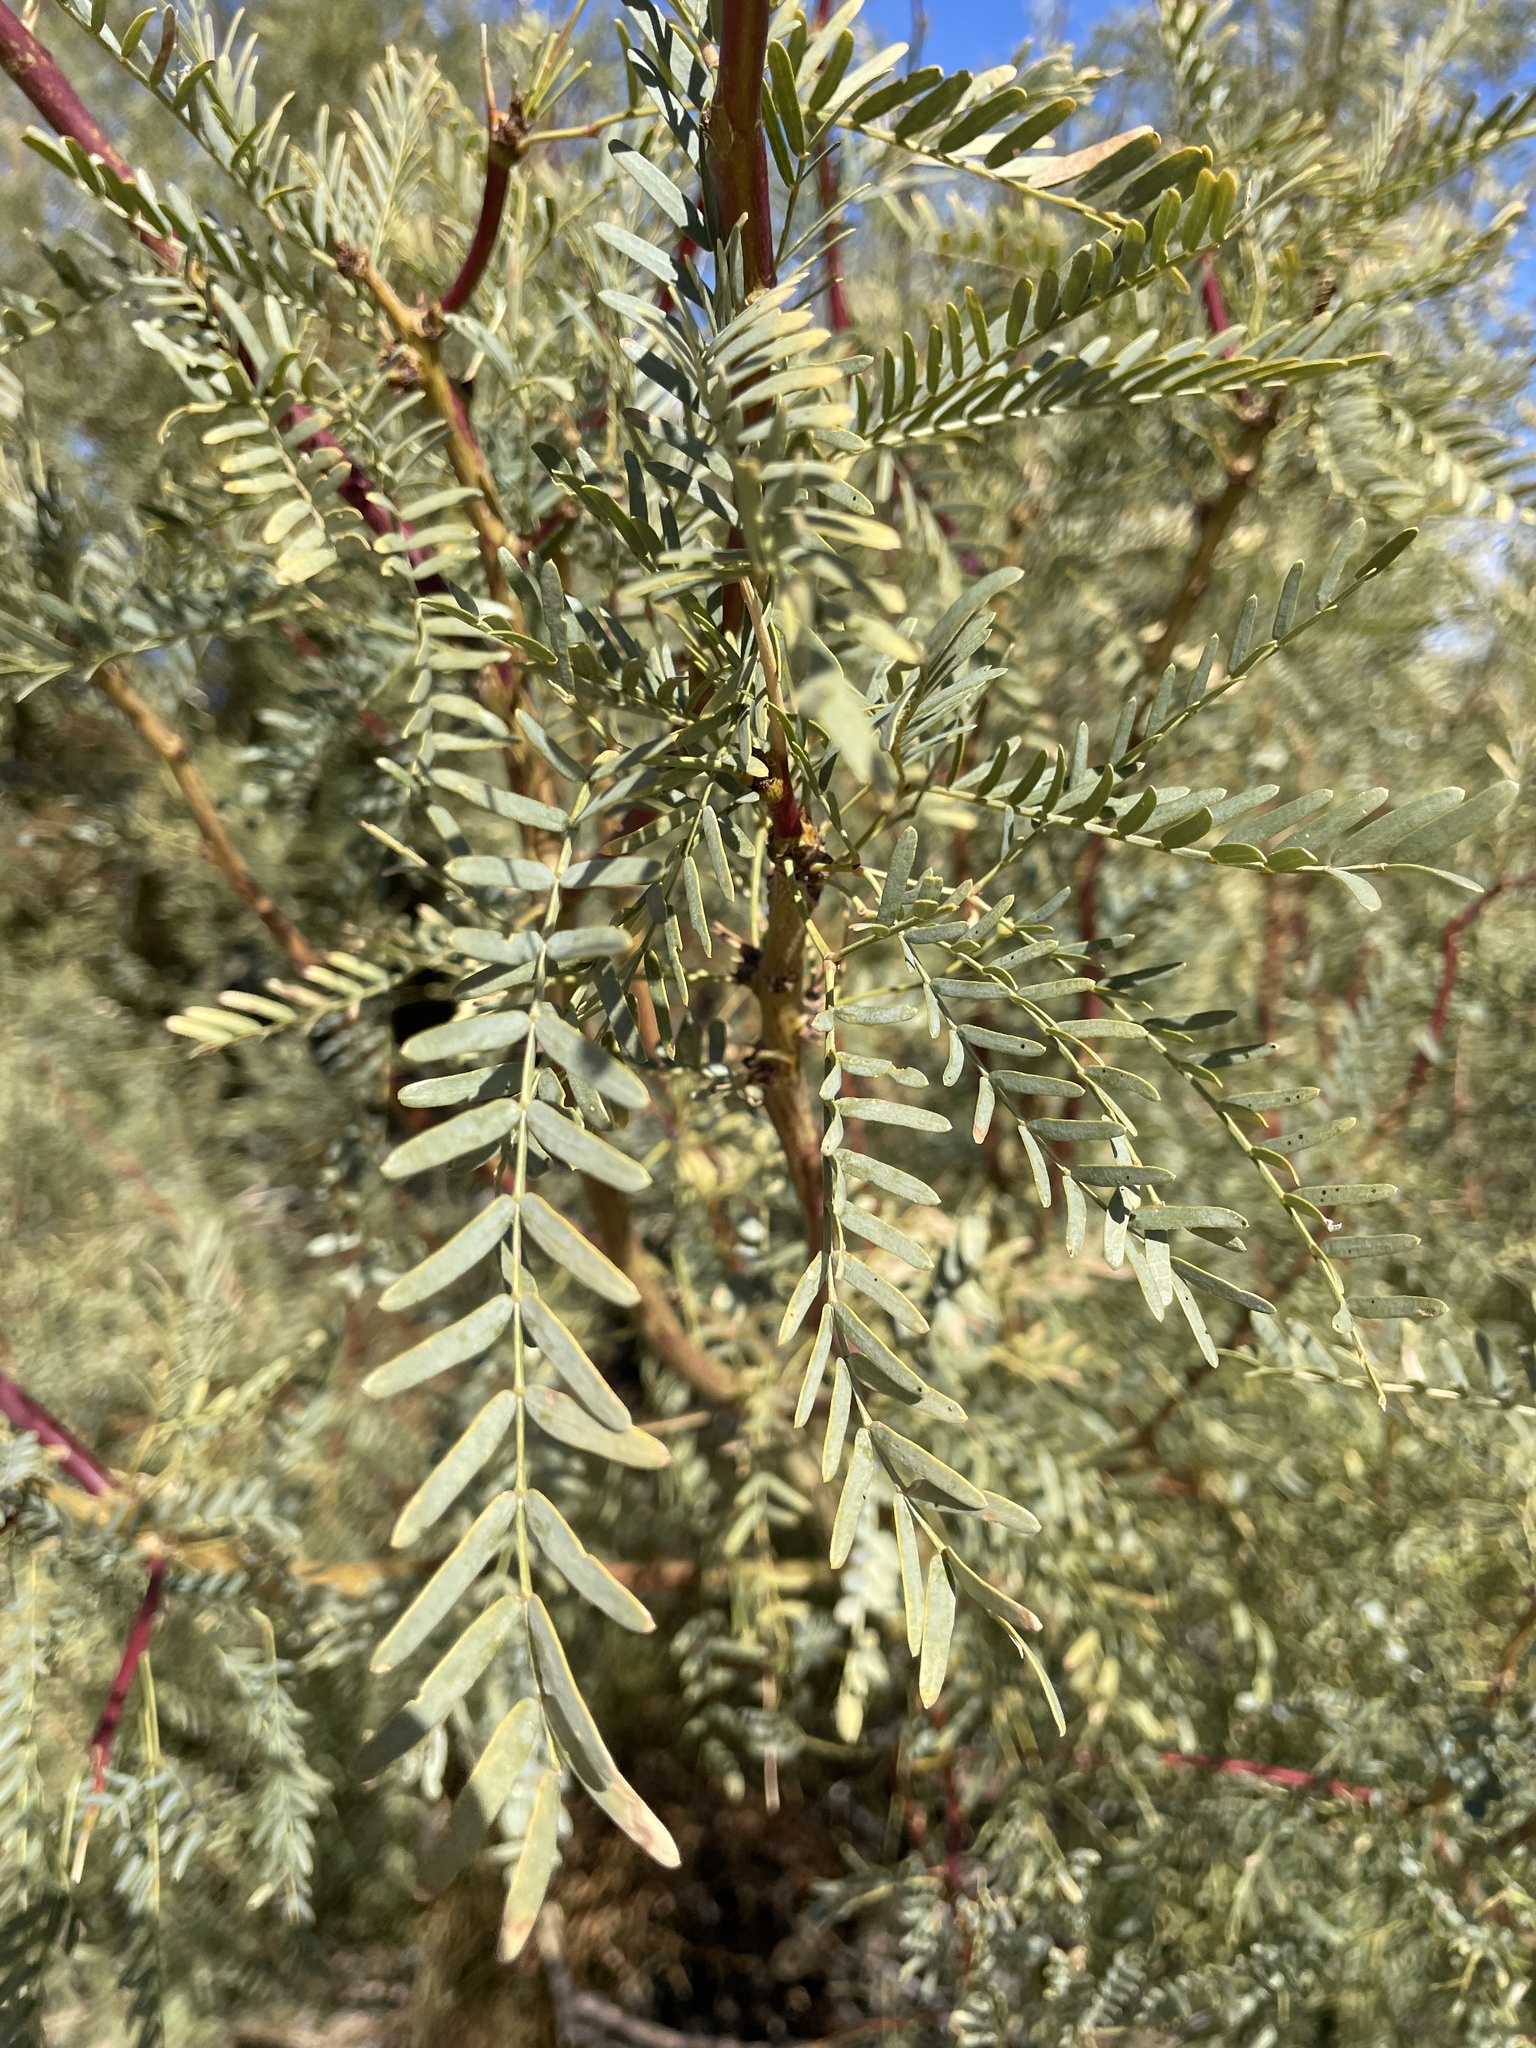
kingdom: Plantae
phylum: Tracheophyta
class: Magnoliopsida
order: Fabales
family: Fabaceae
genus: Prosopis
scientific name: Prosopis pubescens
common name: Screw-bean
